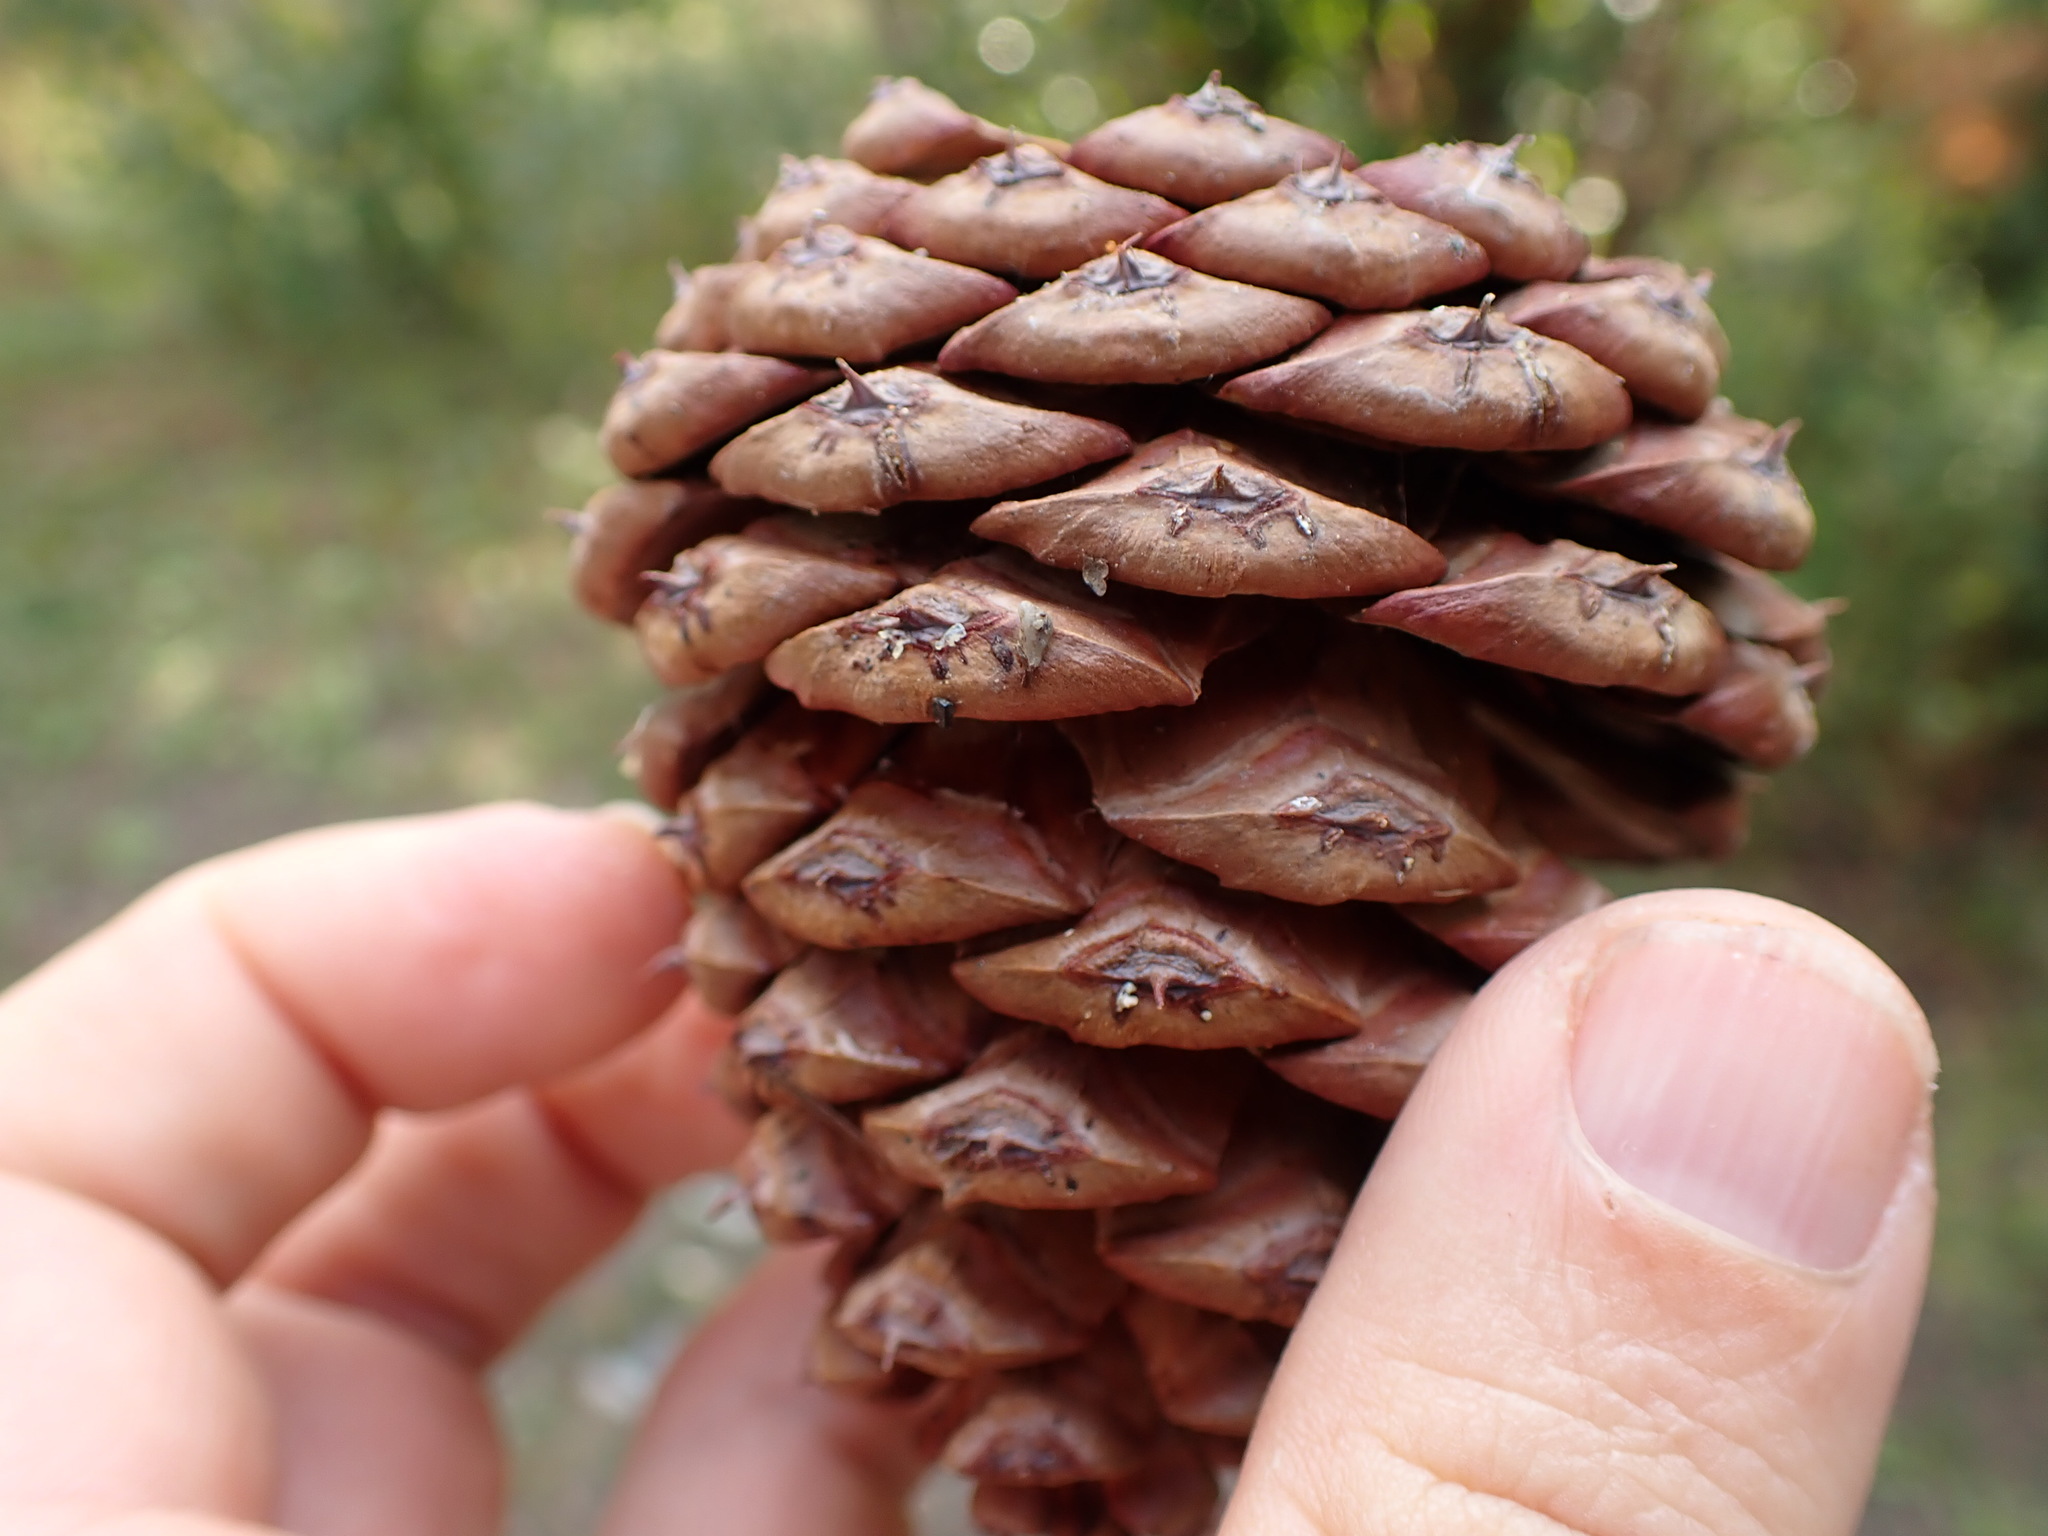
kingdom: Plantae
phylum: Tracheophyta
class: Pinopsida
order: Pinales
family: Pinaceae
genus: Pinus
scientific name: Pinus ponderosa
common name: Western yellow-pine
